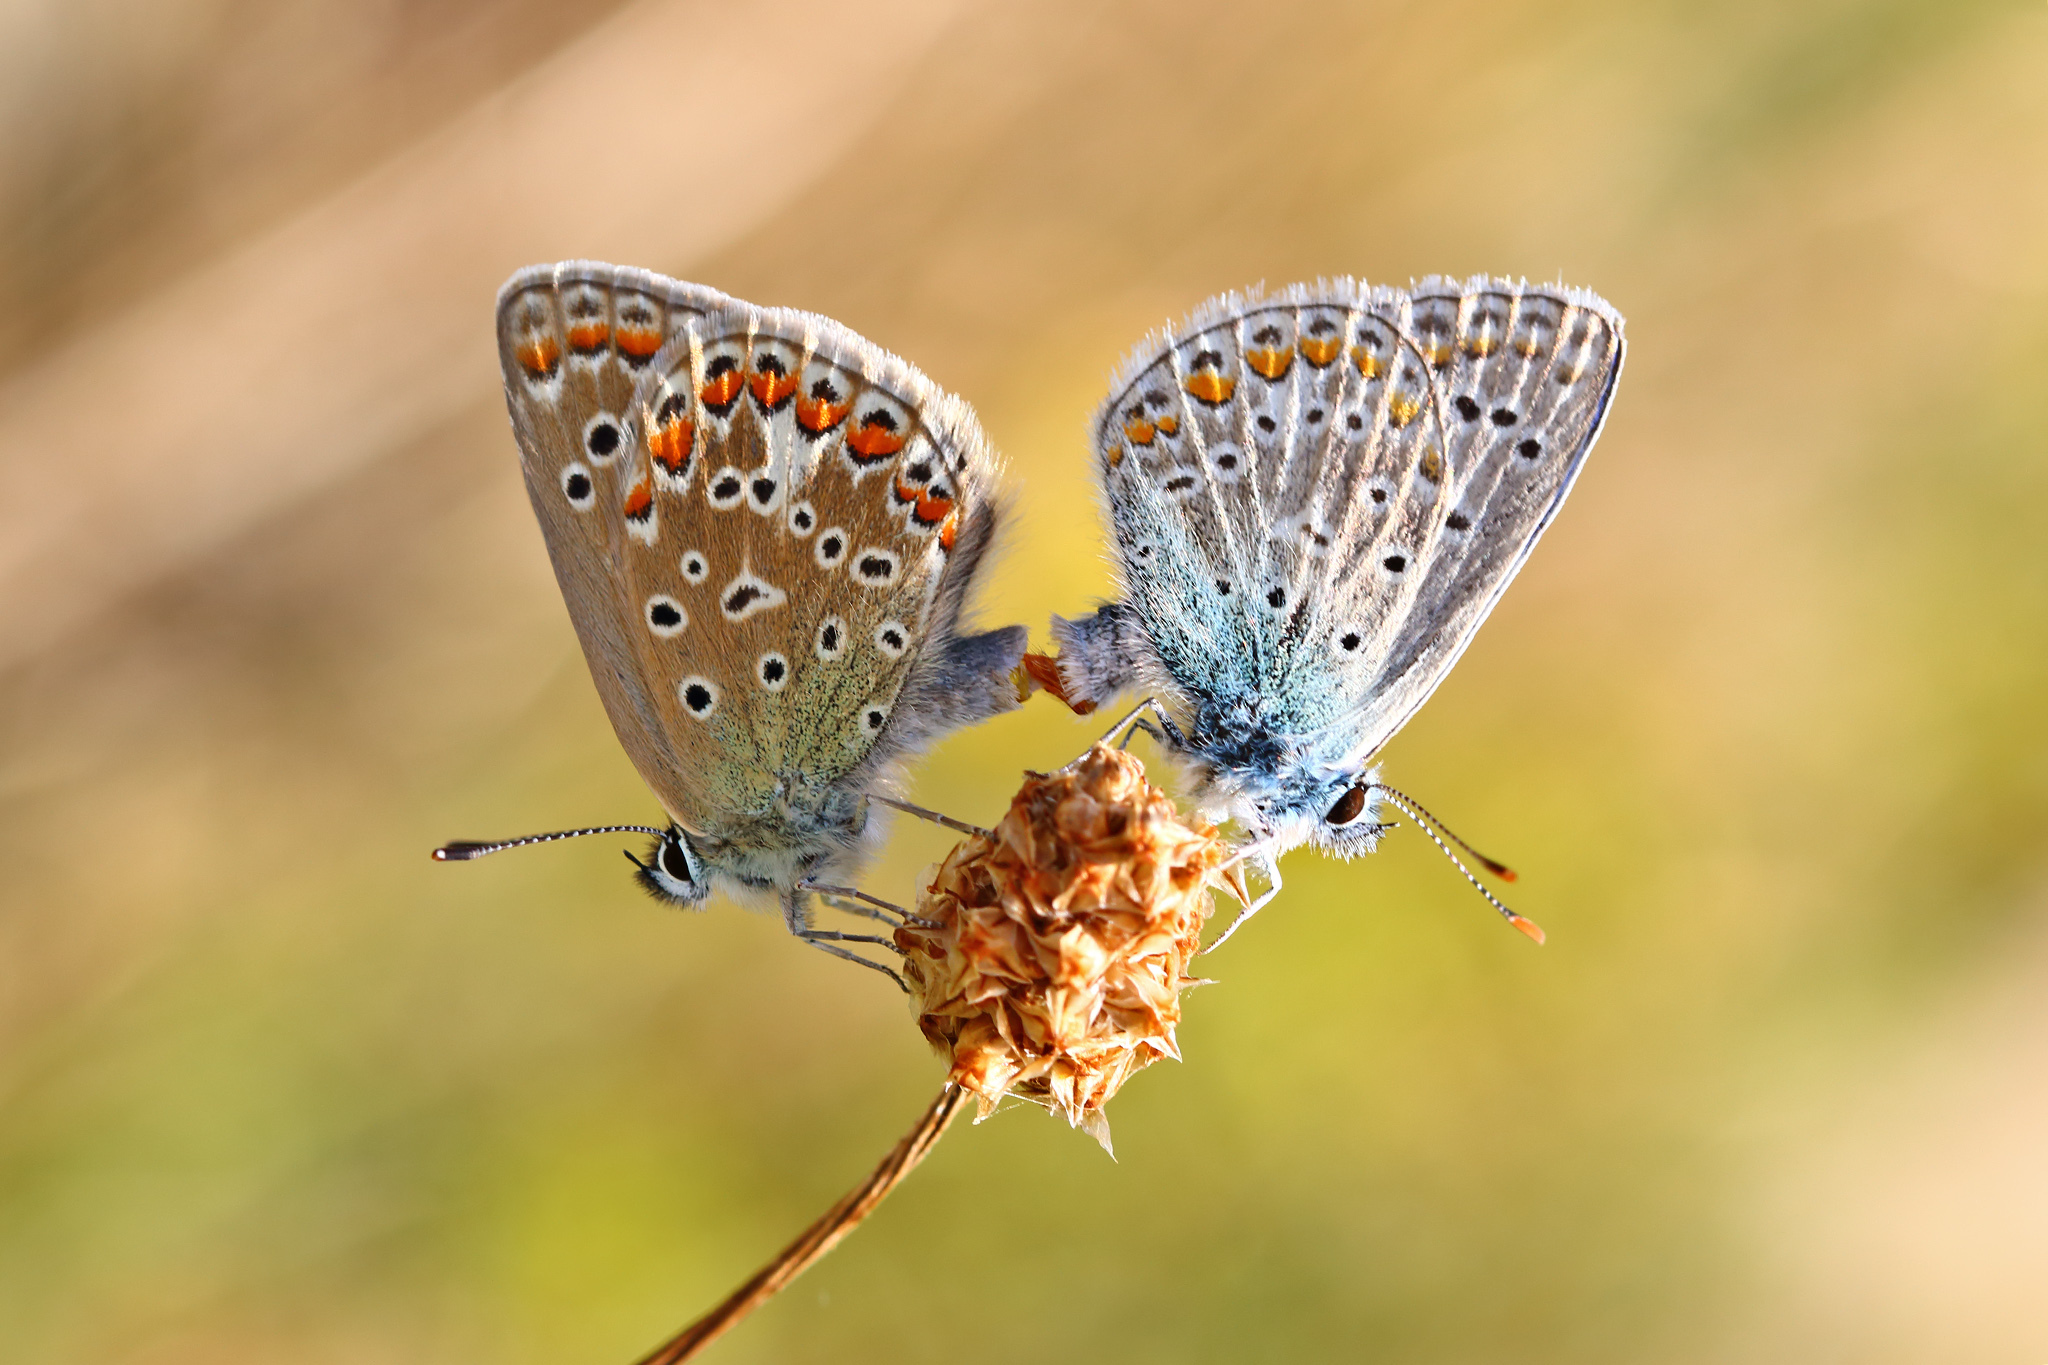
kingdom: Animalia
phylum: Arthropoda
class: Insecta
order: Lepidoptera
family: Lycaenidae
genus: Polyommatus
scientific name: Polyommatus icarus
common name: Common blue
